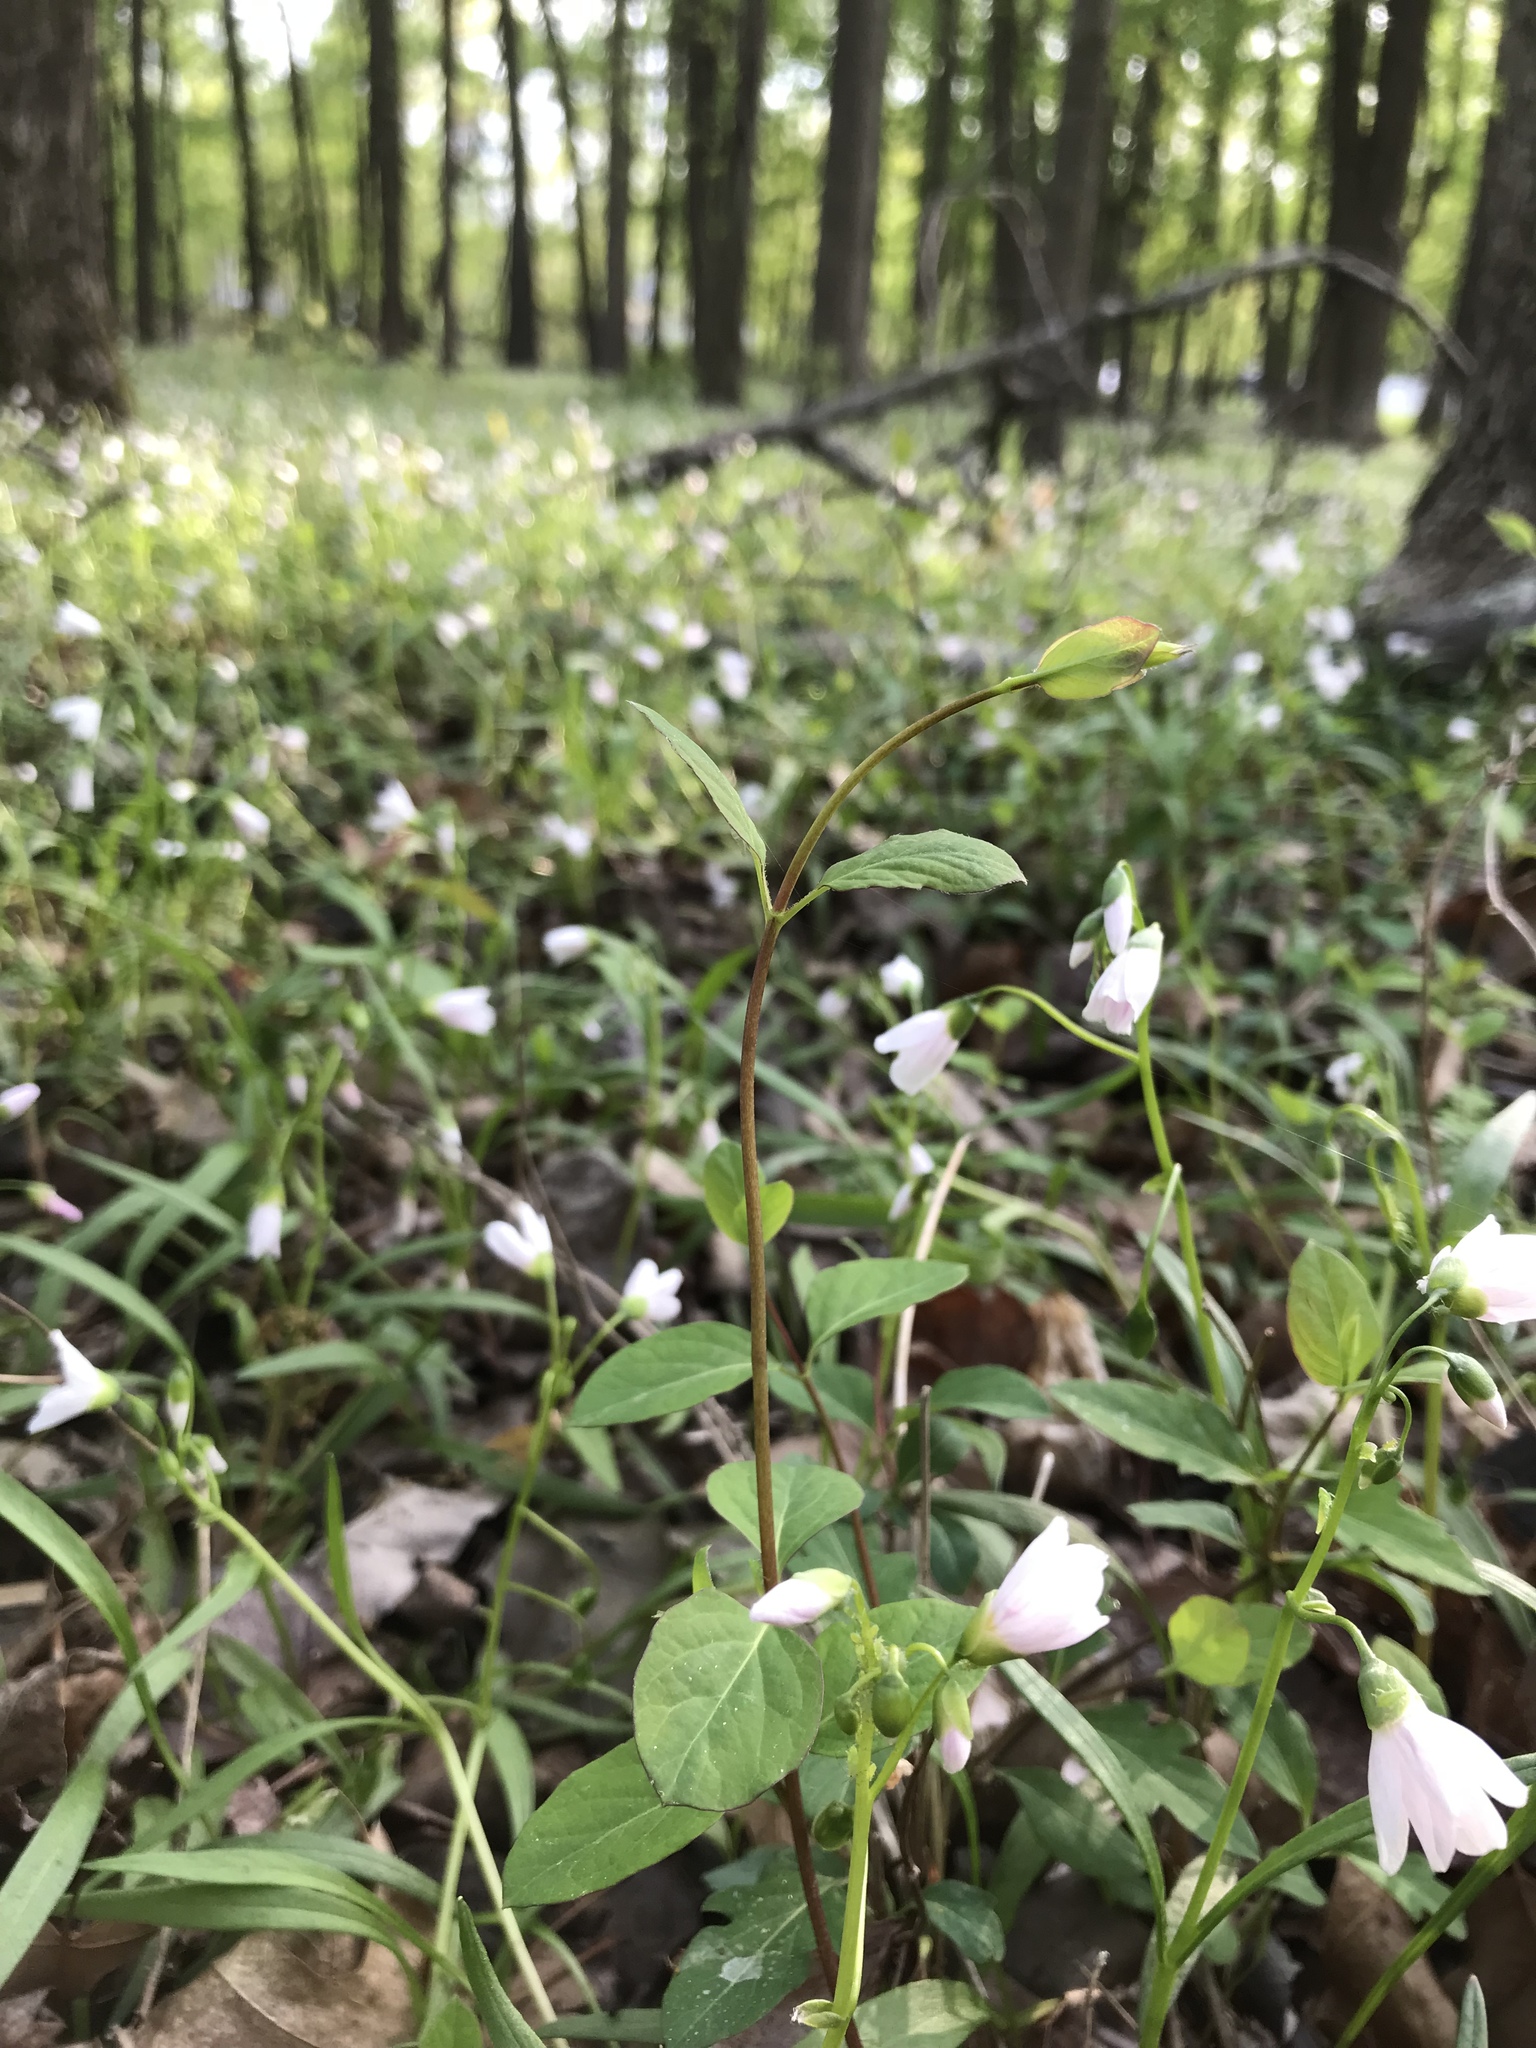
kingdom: Plantae
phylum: Tracheophyta
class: Magnoliopsida
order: Caryophyllales
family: Montiaceae
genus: Claytonia
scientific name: Claytonia virginica
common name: Virginia springbeauty
